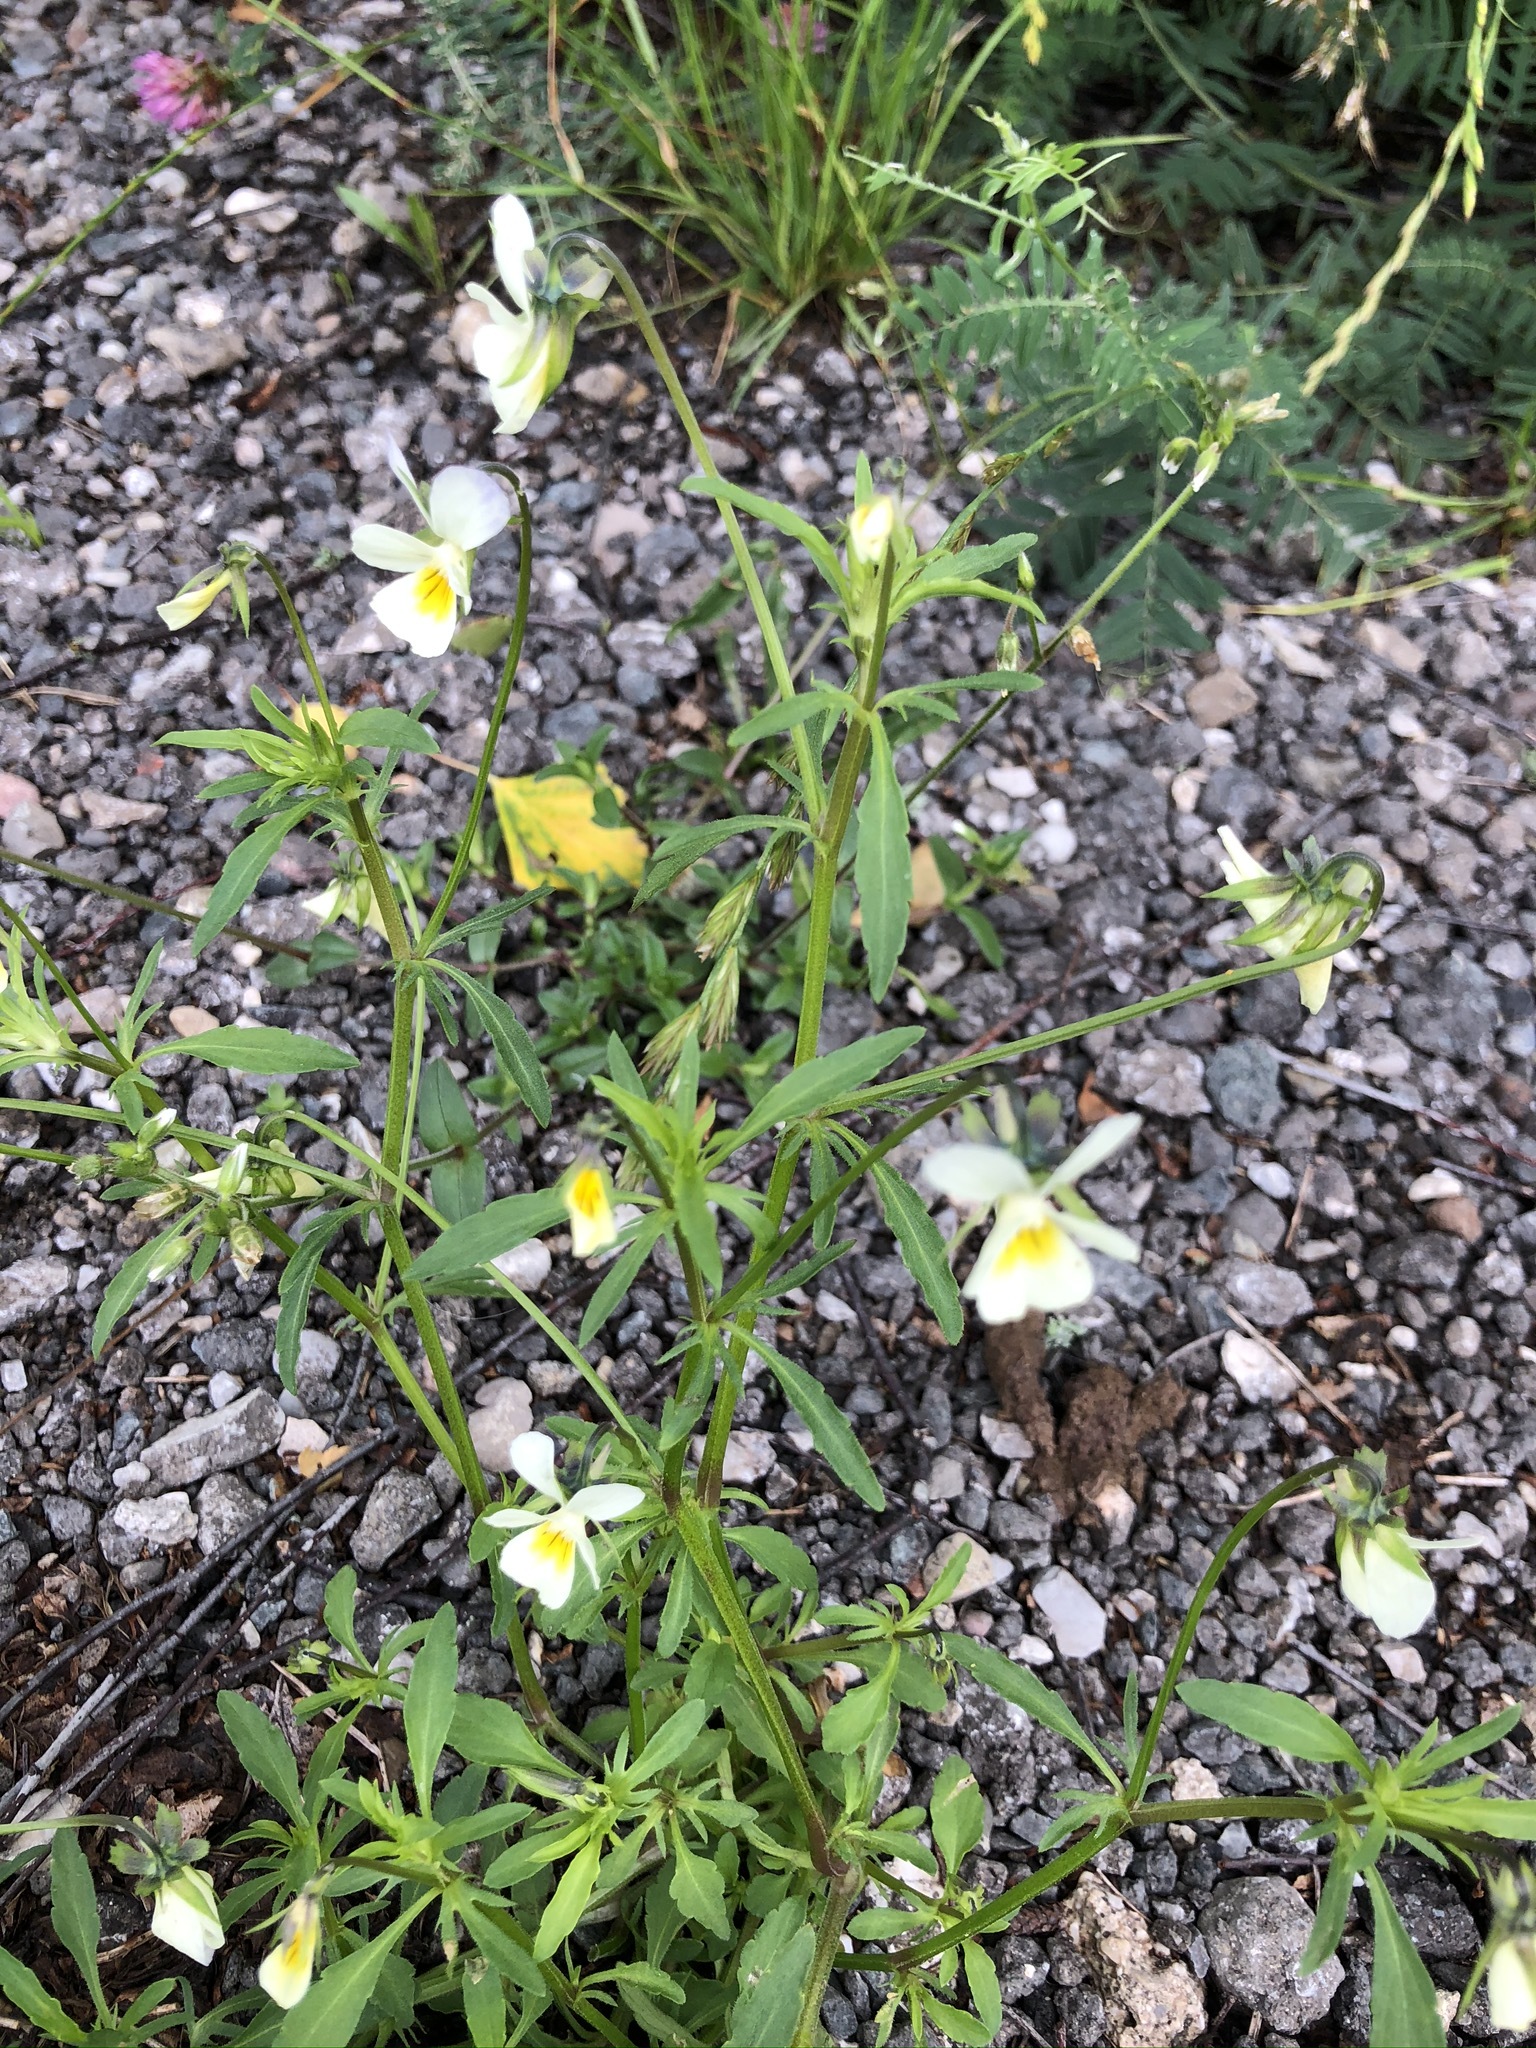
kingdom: Plantae
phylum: Tracheophyta
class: Magnoliopsida
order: Malpighiales
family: Violaceae
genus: Viola
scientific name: Viola tricolor
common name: Pansy
